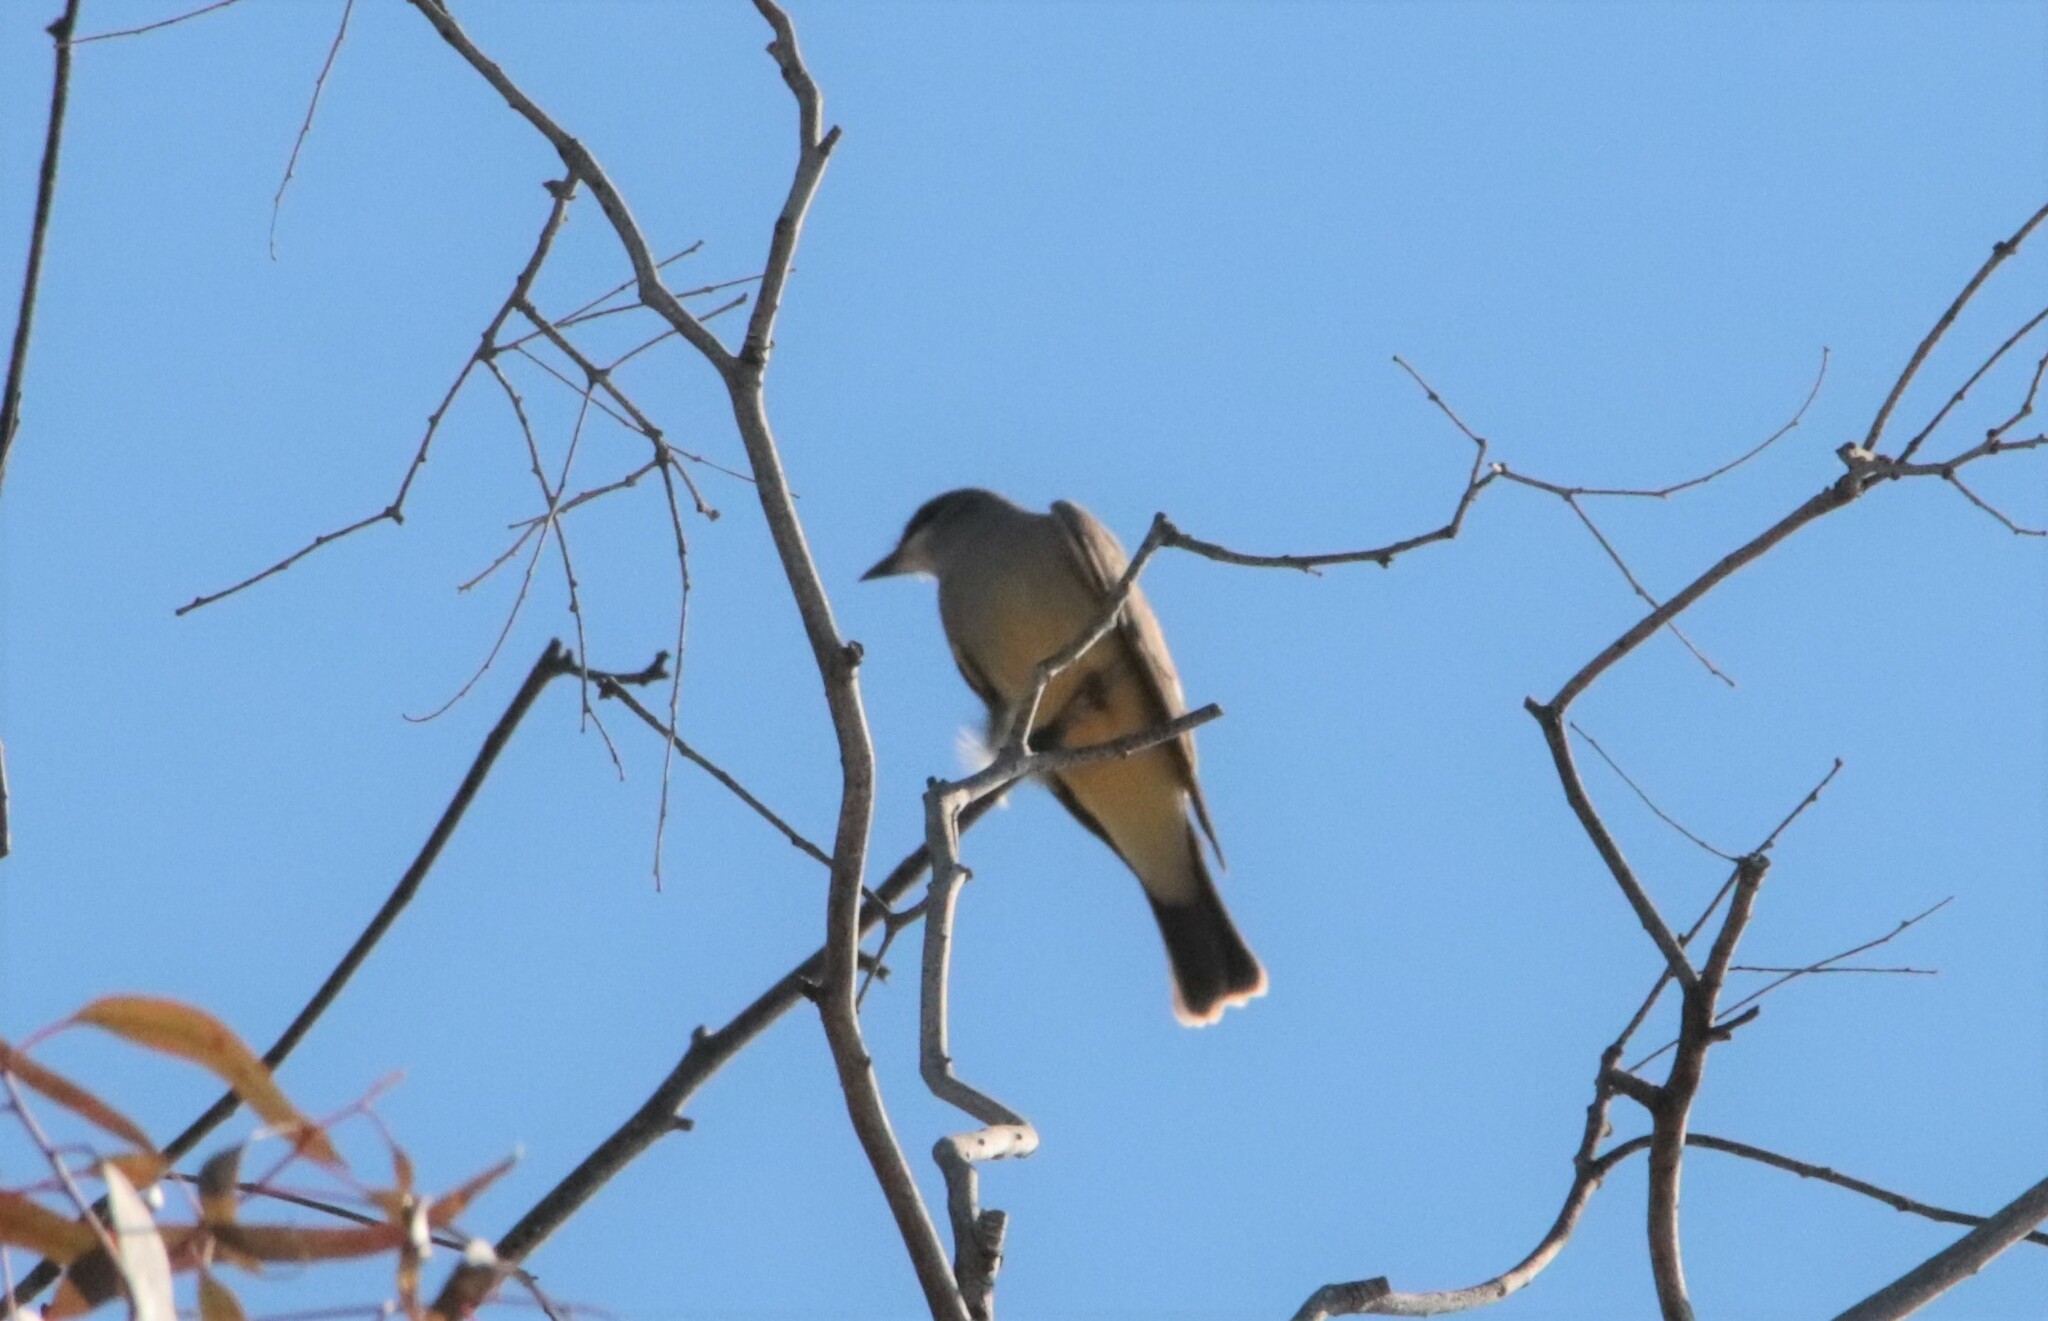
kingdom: Animalia
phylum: Chordata
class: Aves
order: Passeriformes
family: Tyrannidae
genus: Tyrannus
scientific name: Tyrannus vociferans
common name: Cassin's kingbird
